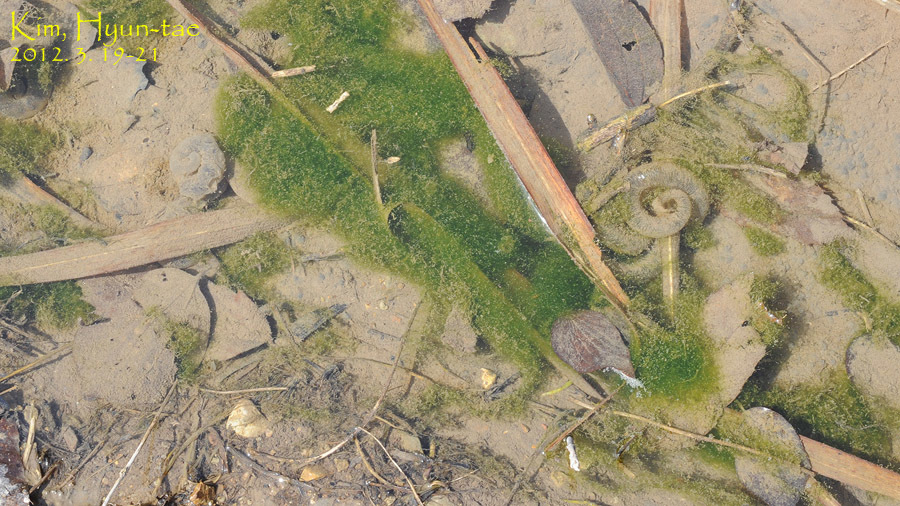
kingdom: Animalia
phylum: Chordata
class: Amphibia
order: Caudata
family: Hynobiidae
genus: Hynobius
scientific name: Hynobius leechii
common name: Gensan salamander
